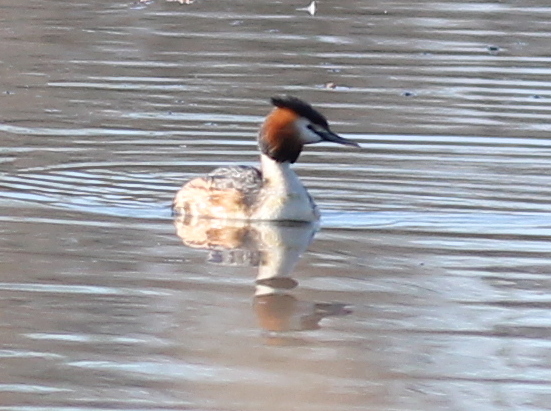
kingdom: Animalia
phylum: Chordata
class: Aves
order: Podicipediformes
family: Podicipedidae
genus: Podiceps
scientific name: Podiceps cristatus
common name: Great crested grebe
